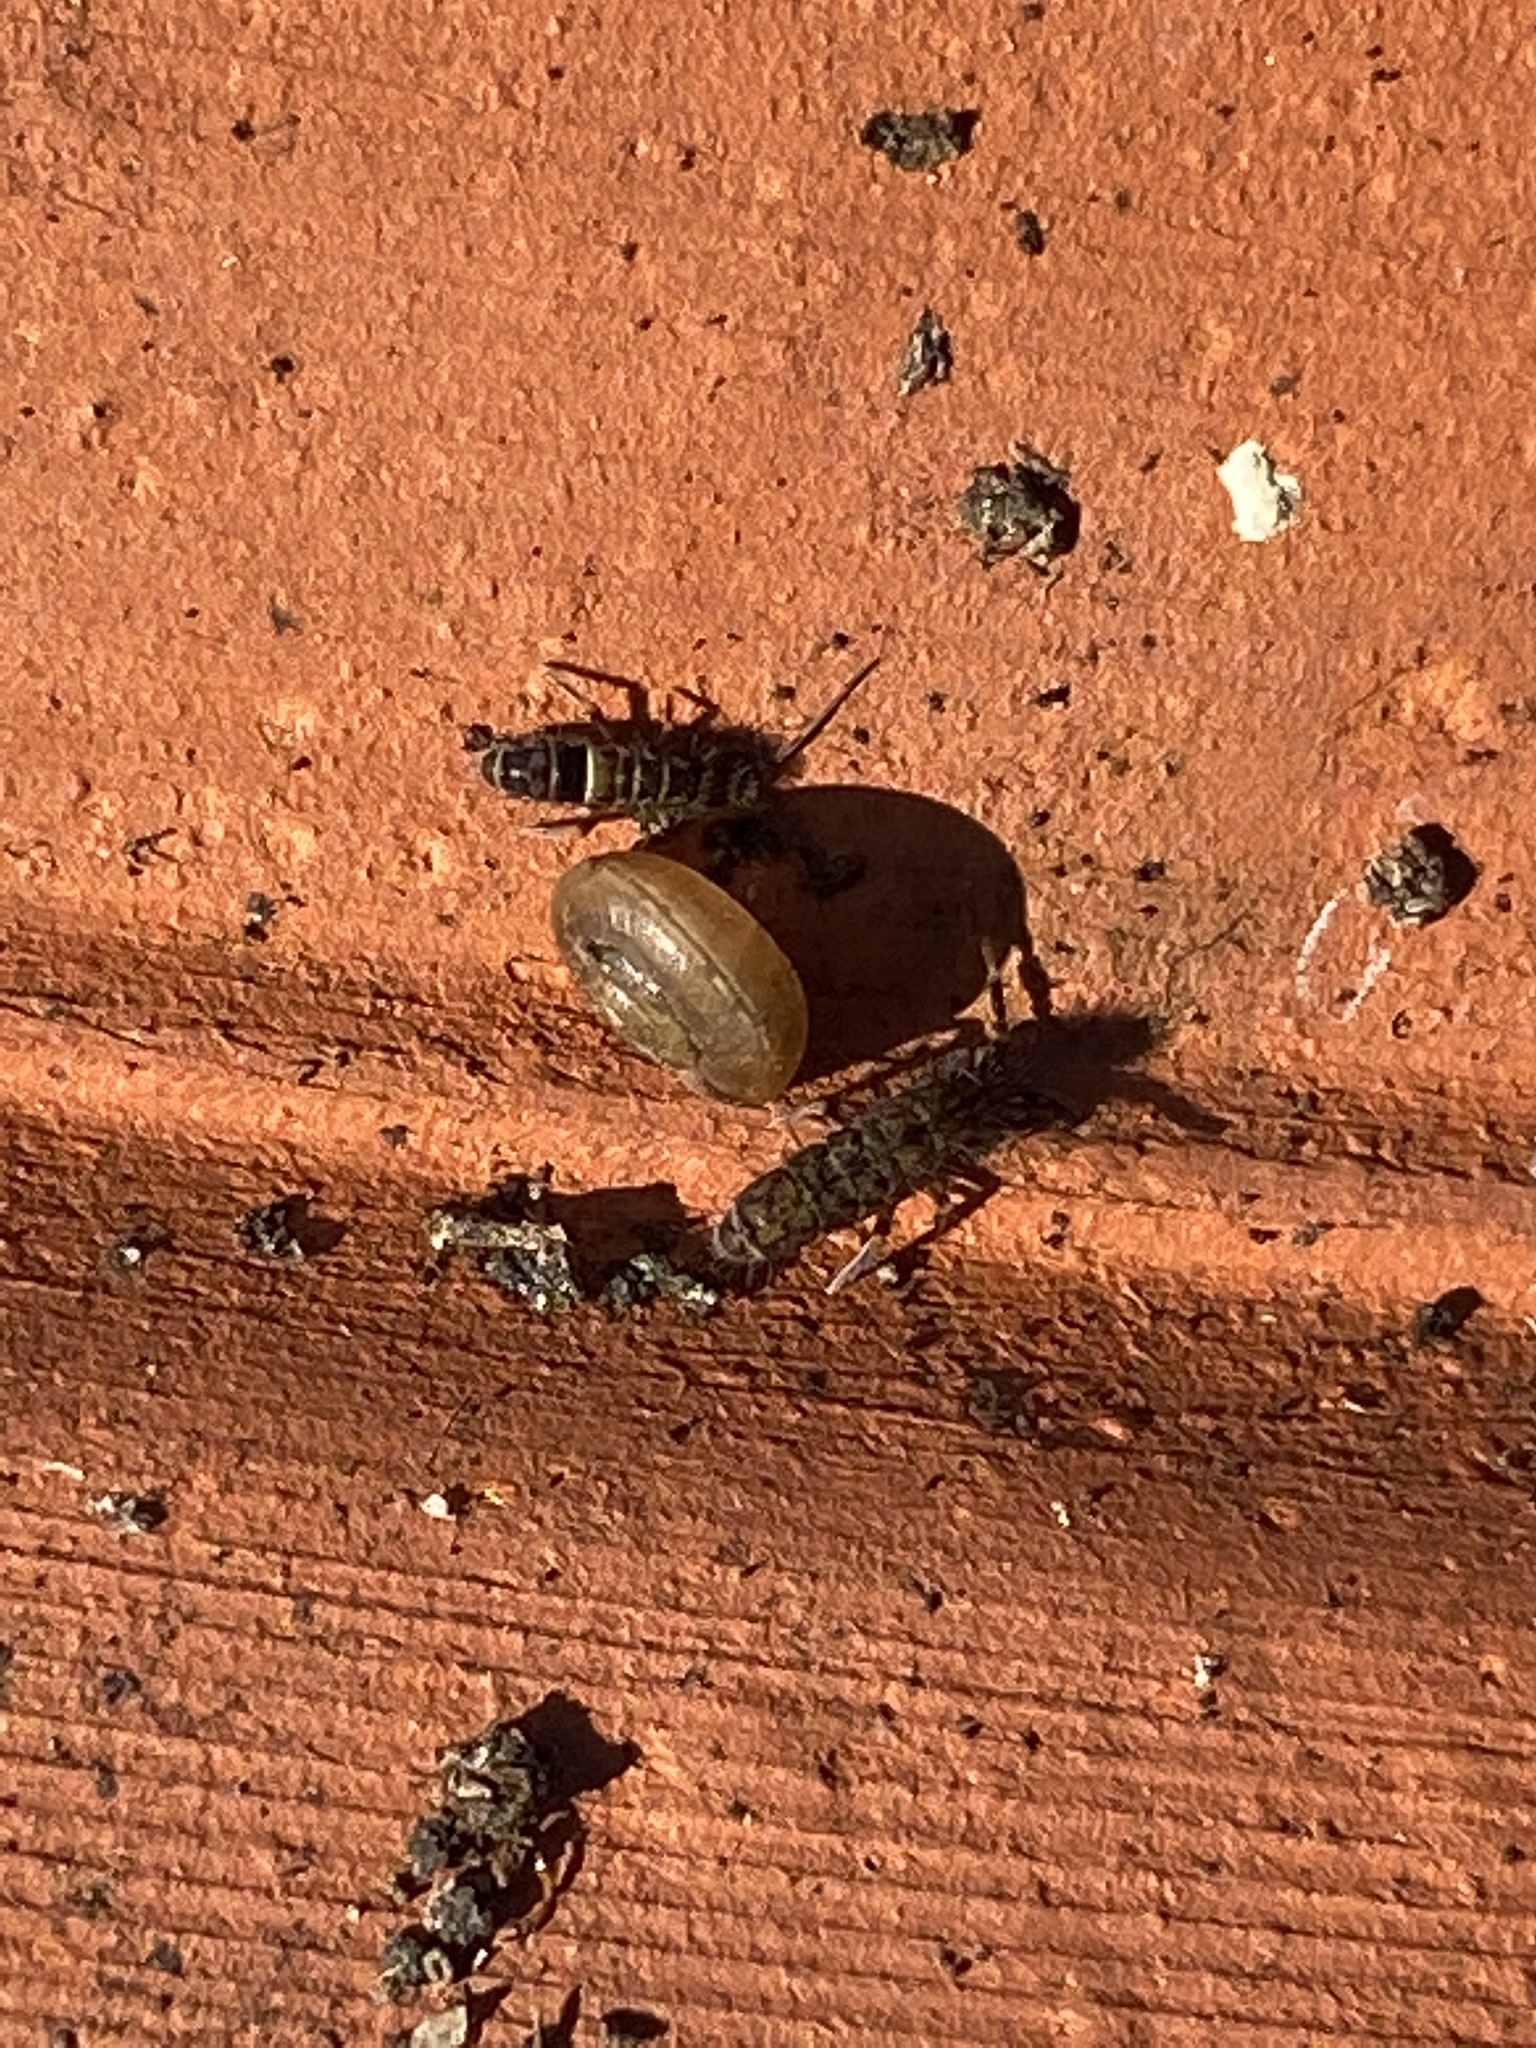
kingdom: Animalia
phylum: Arthropoda
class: Collembola
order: Entomobryomorpha
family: Orchesellidae
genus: Orchesella
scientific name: Orchesella villosa
